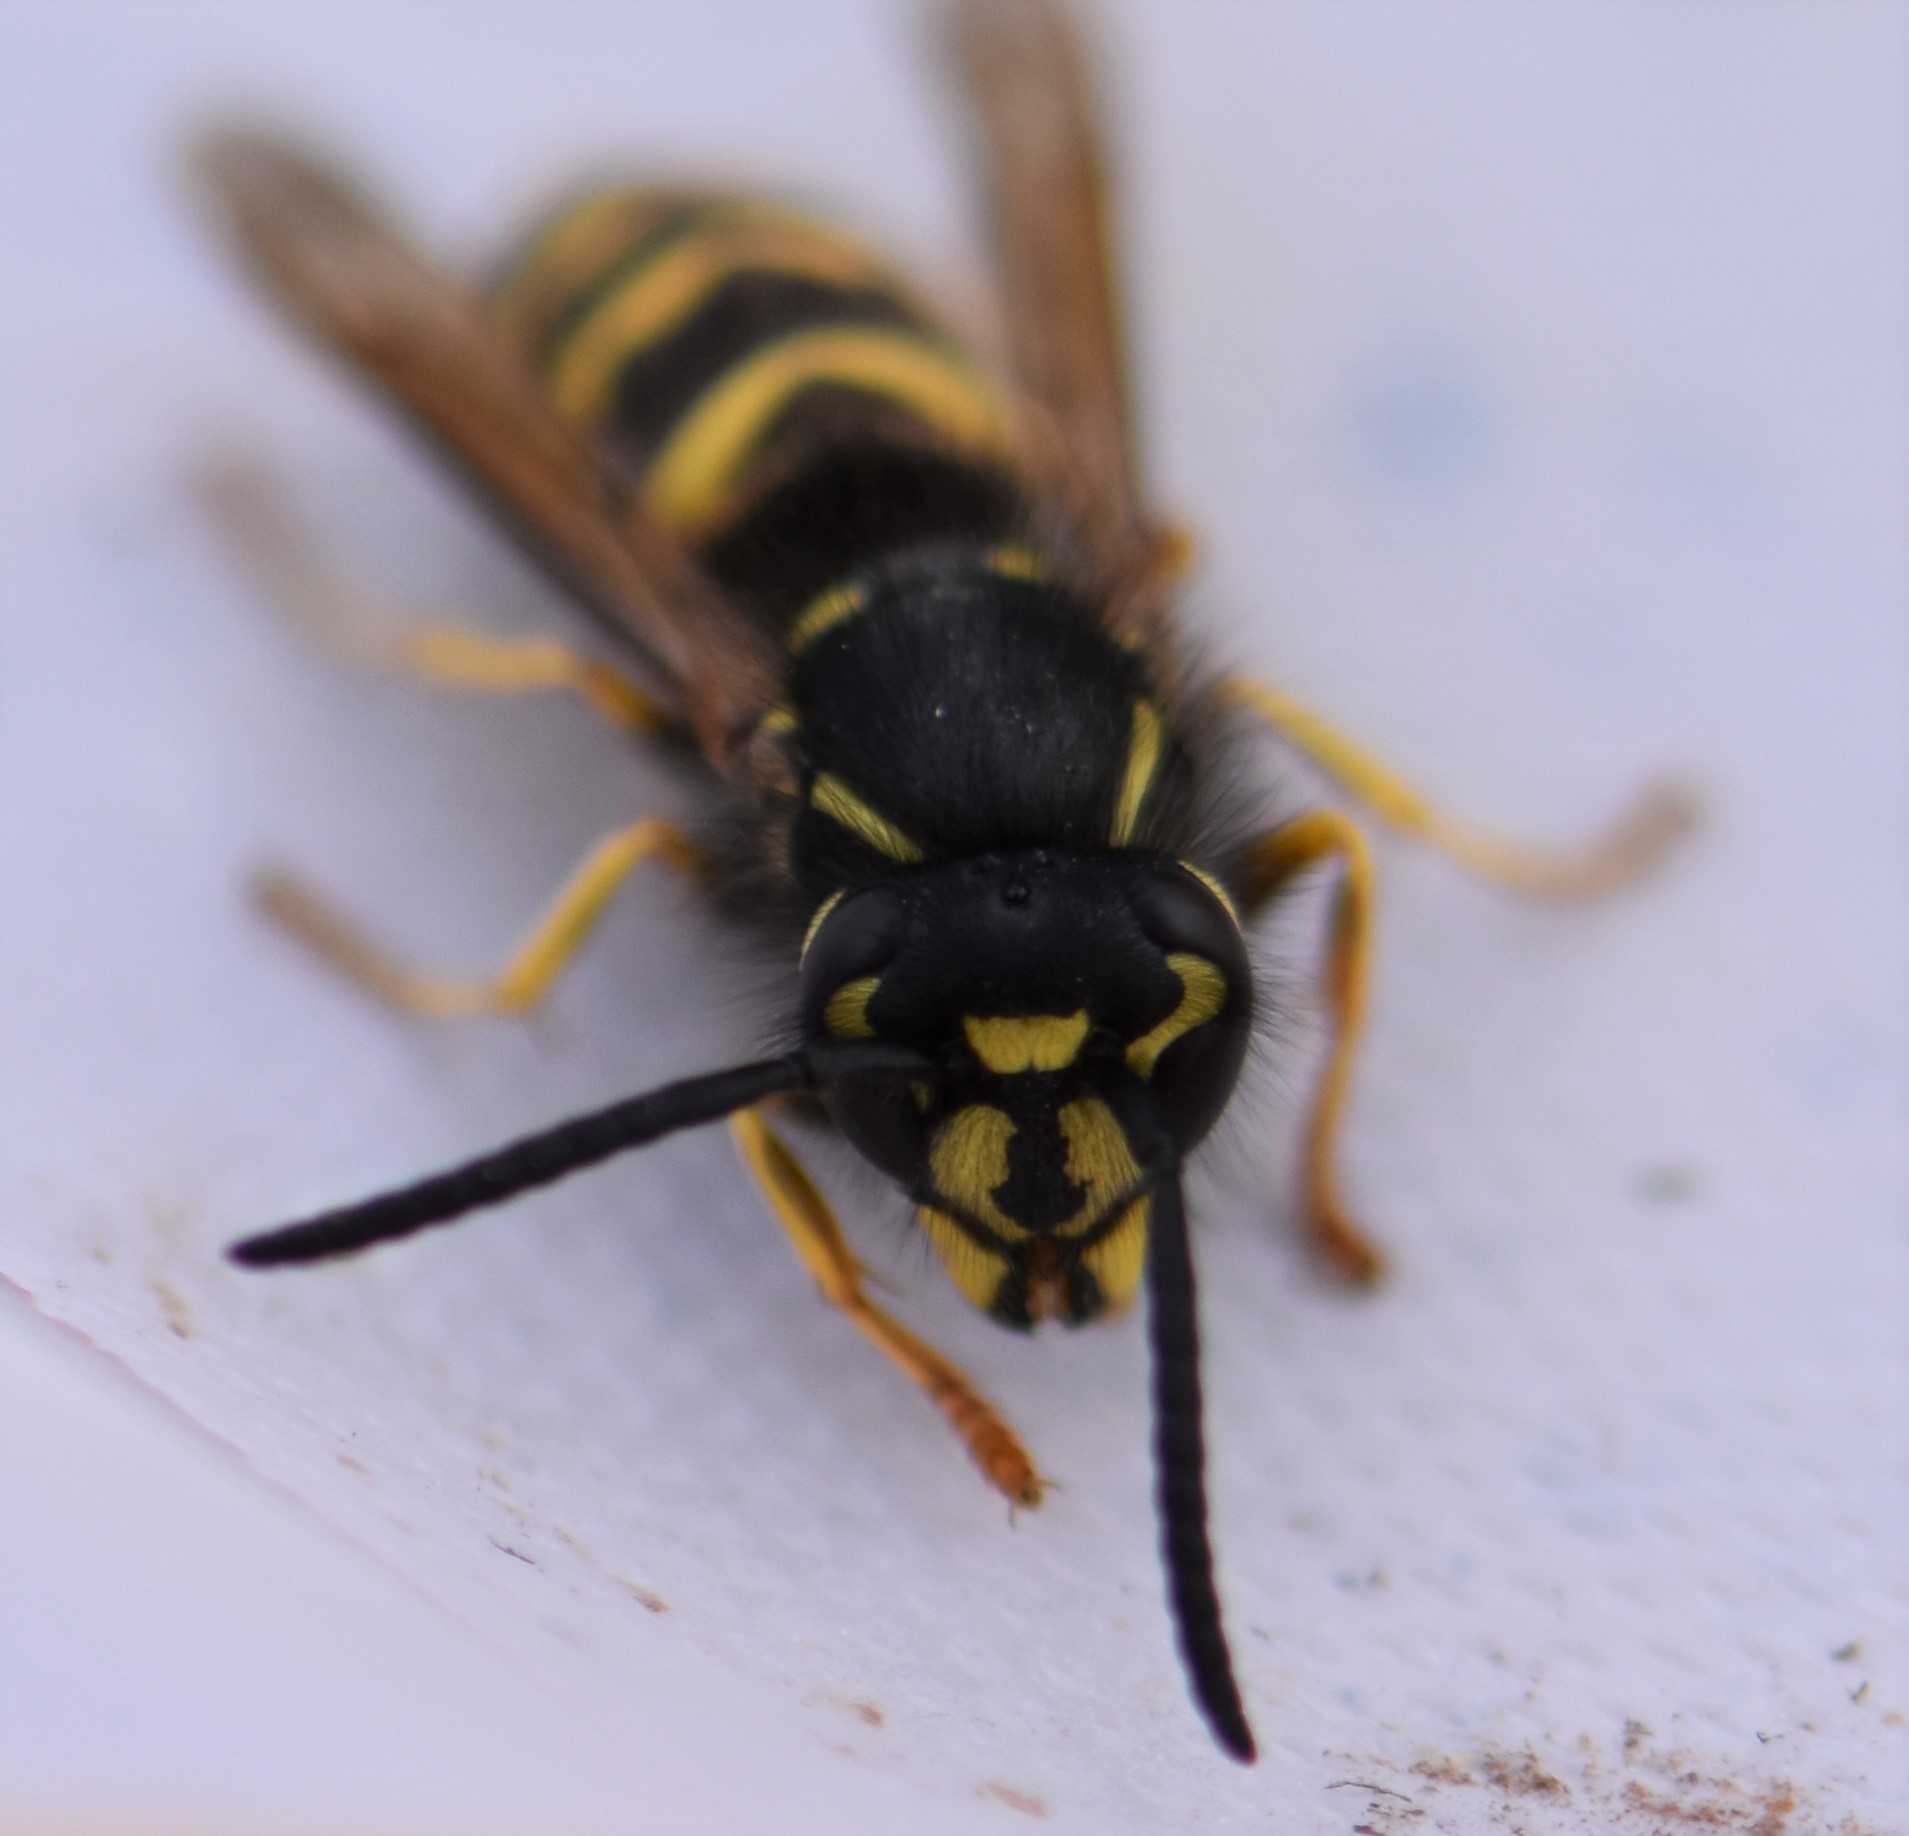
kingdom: Animalia
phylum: Arthropoda
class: Insecta
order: Hymenoptera
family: Vespidae
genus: Vespula
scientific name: Vespula alascensis
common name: Alaska yellowjacket
